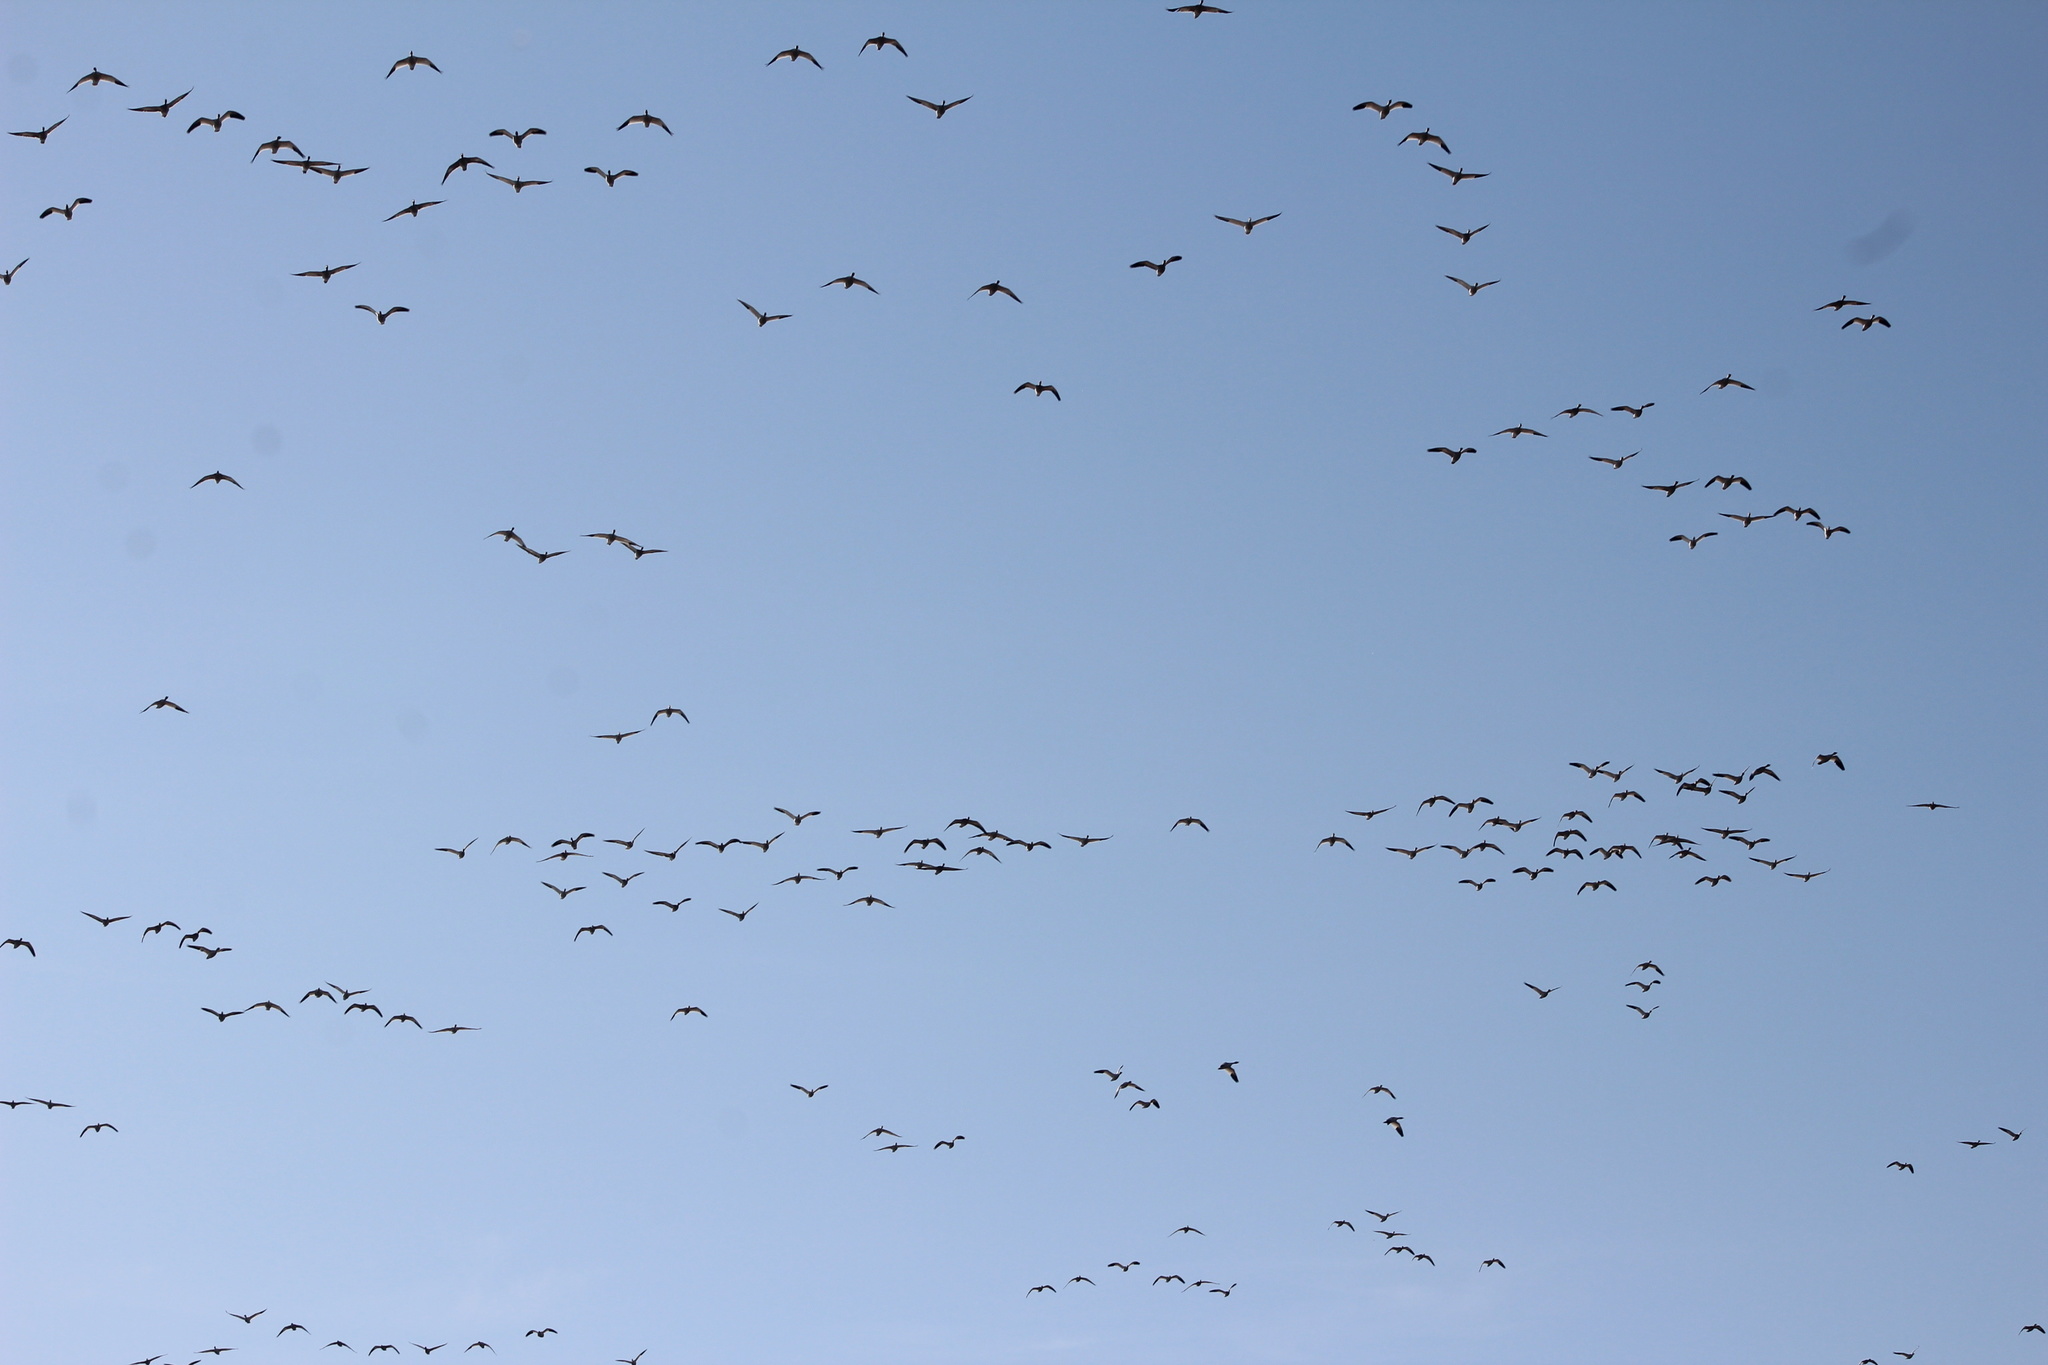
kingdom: Animalia
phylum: Chordata
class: Aves
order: Anseriformes
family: Anatidae
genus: Anser
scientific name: Anser caerulescens
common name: Snow goose
